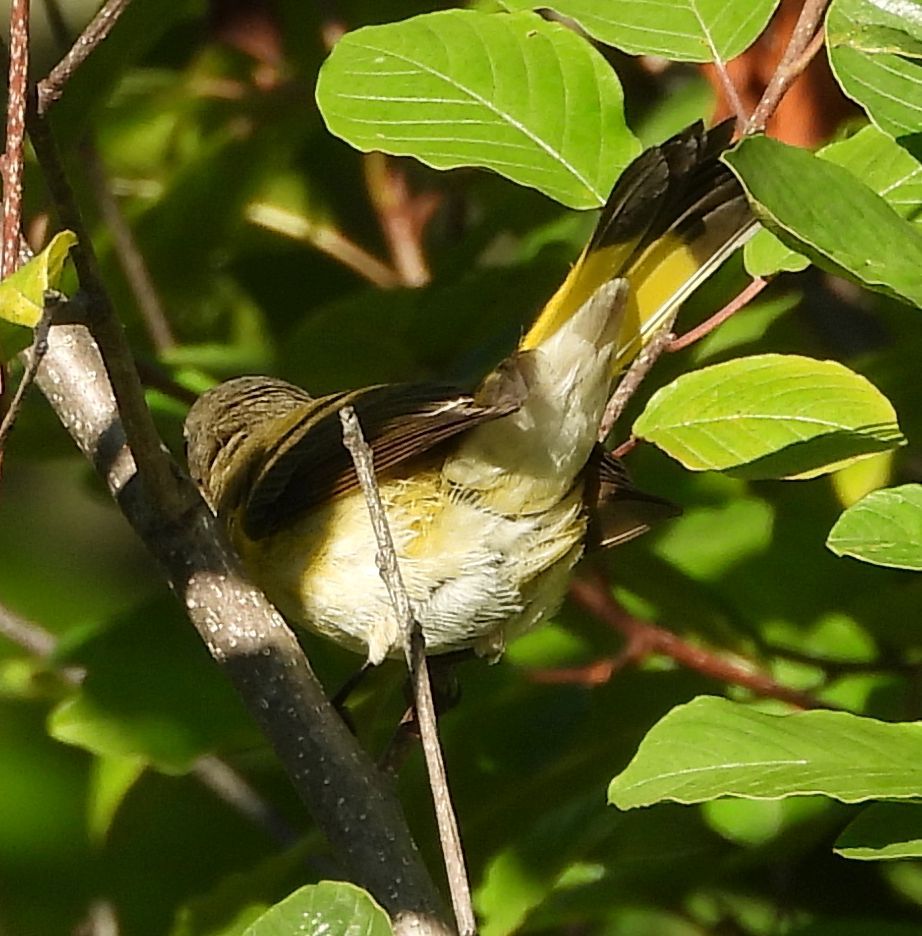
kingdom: Animalia
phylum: Chordata
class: Aves
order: Passeriformes
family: Parulidae
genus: Setophaga
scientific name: Setophaga ruticilla
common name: American redstart
